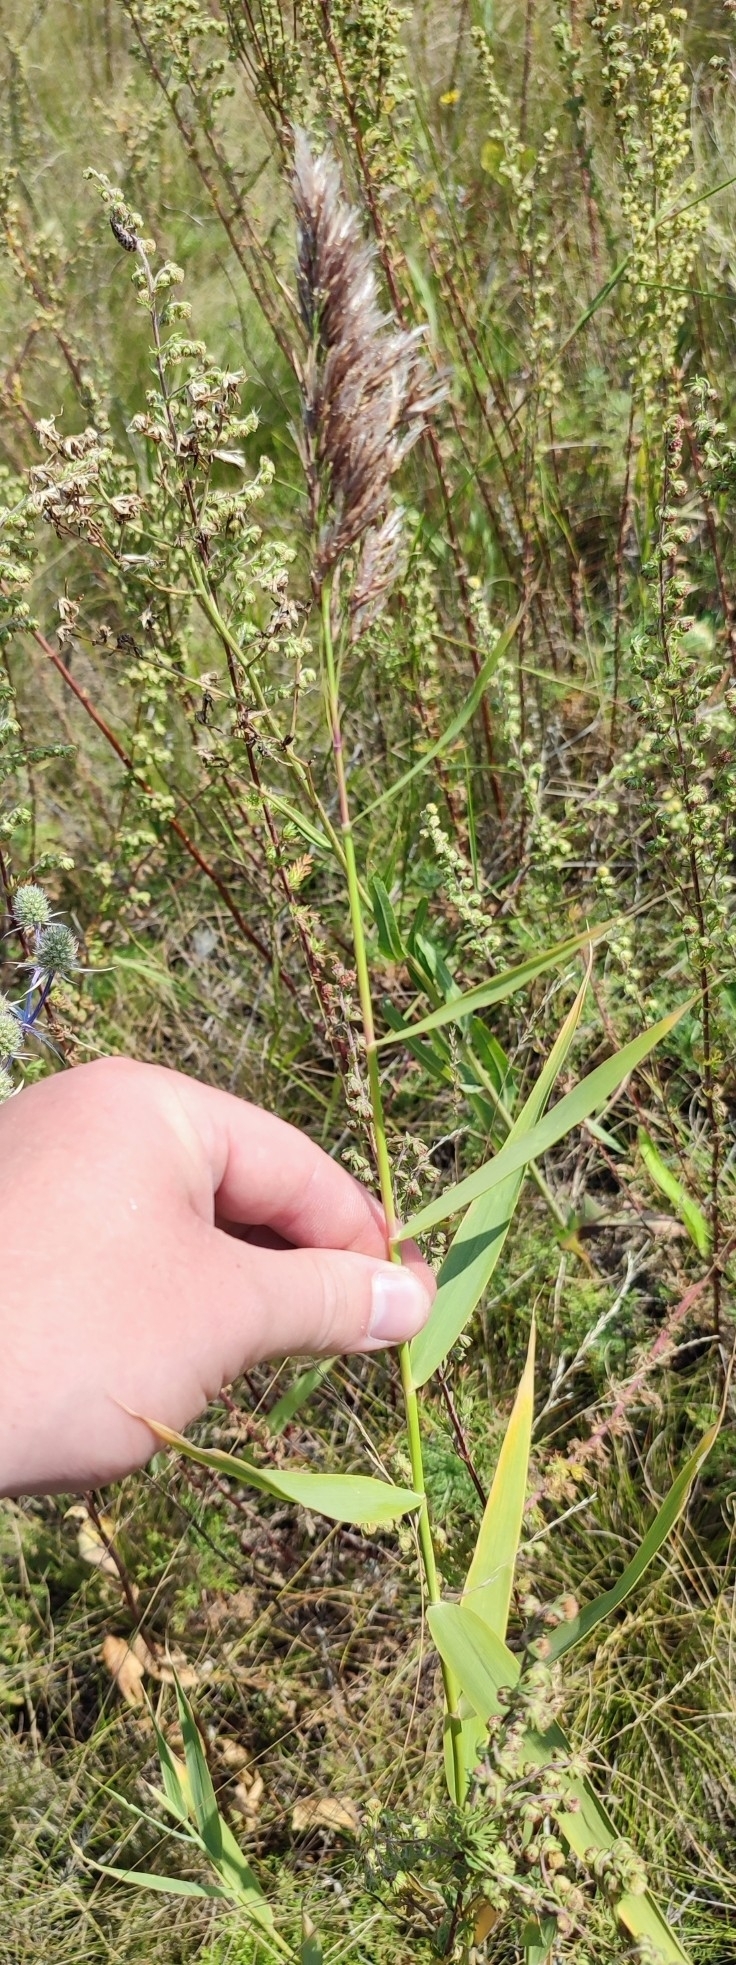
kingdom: Plantae
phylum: Tracheophyta
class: Liliopsida
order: Poales
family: Poaceae
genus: Phragmites
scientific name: Phragmites australis
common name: Common reed
